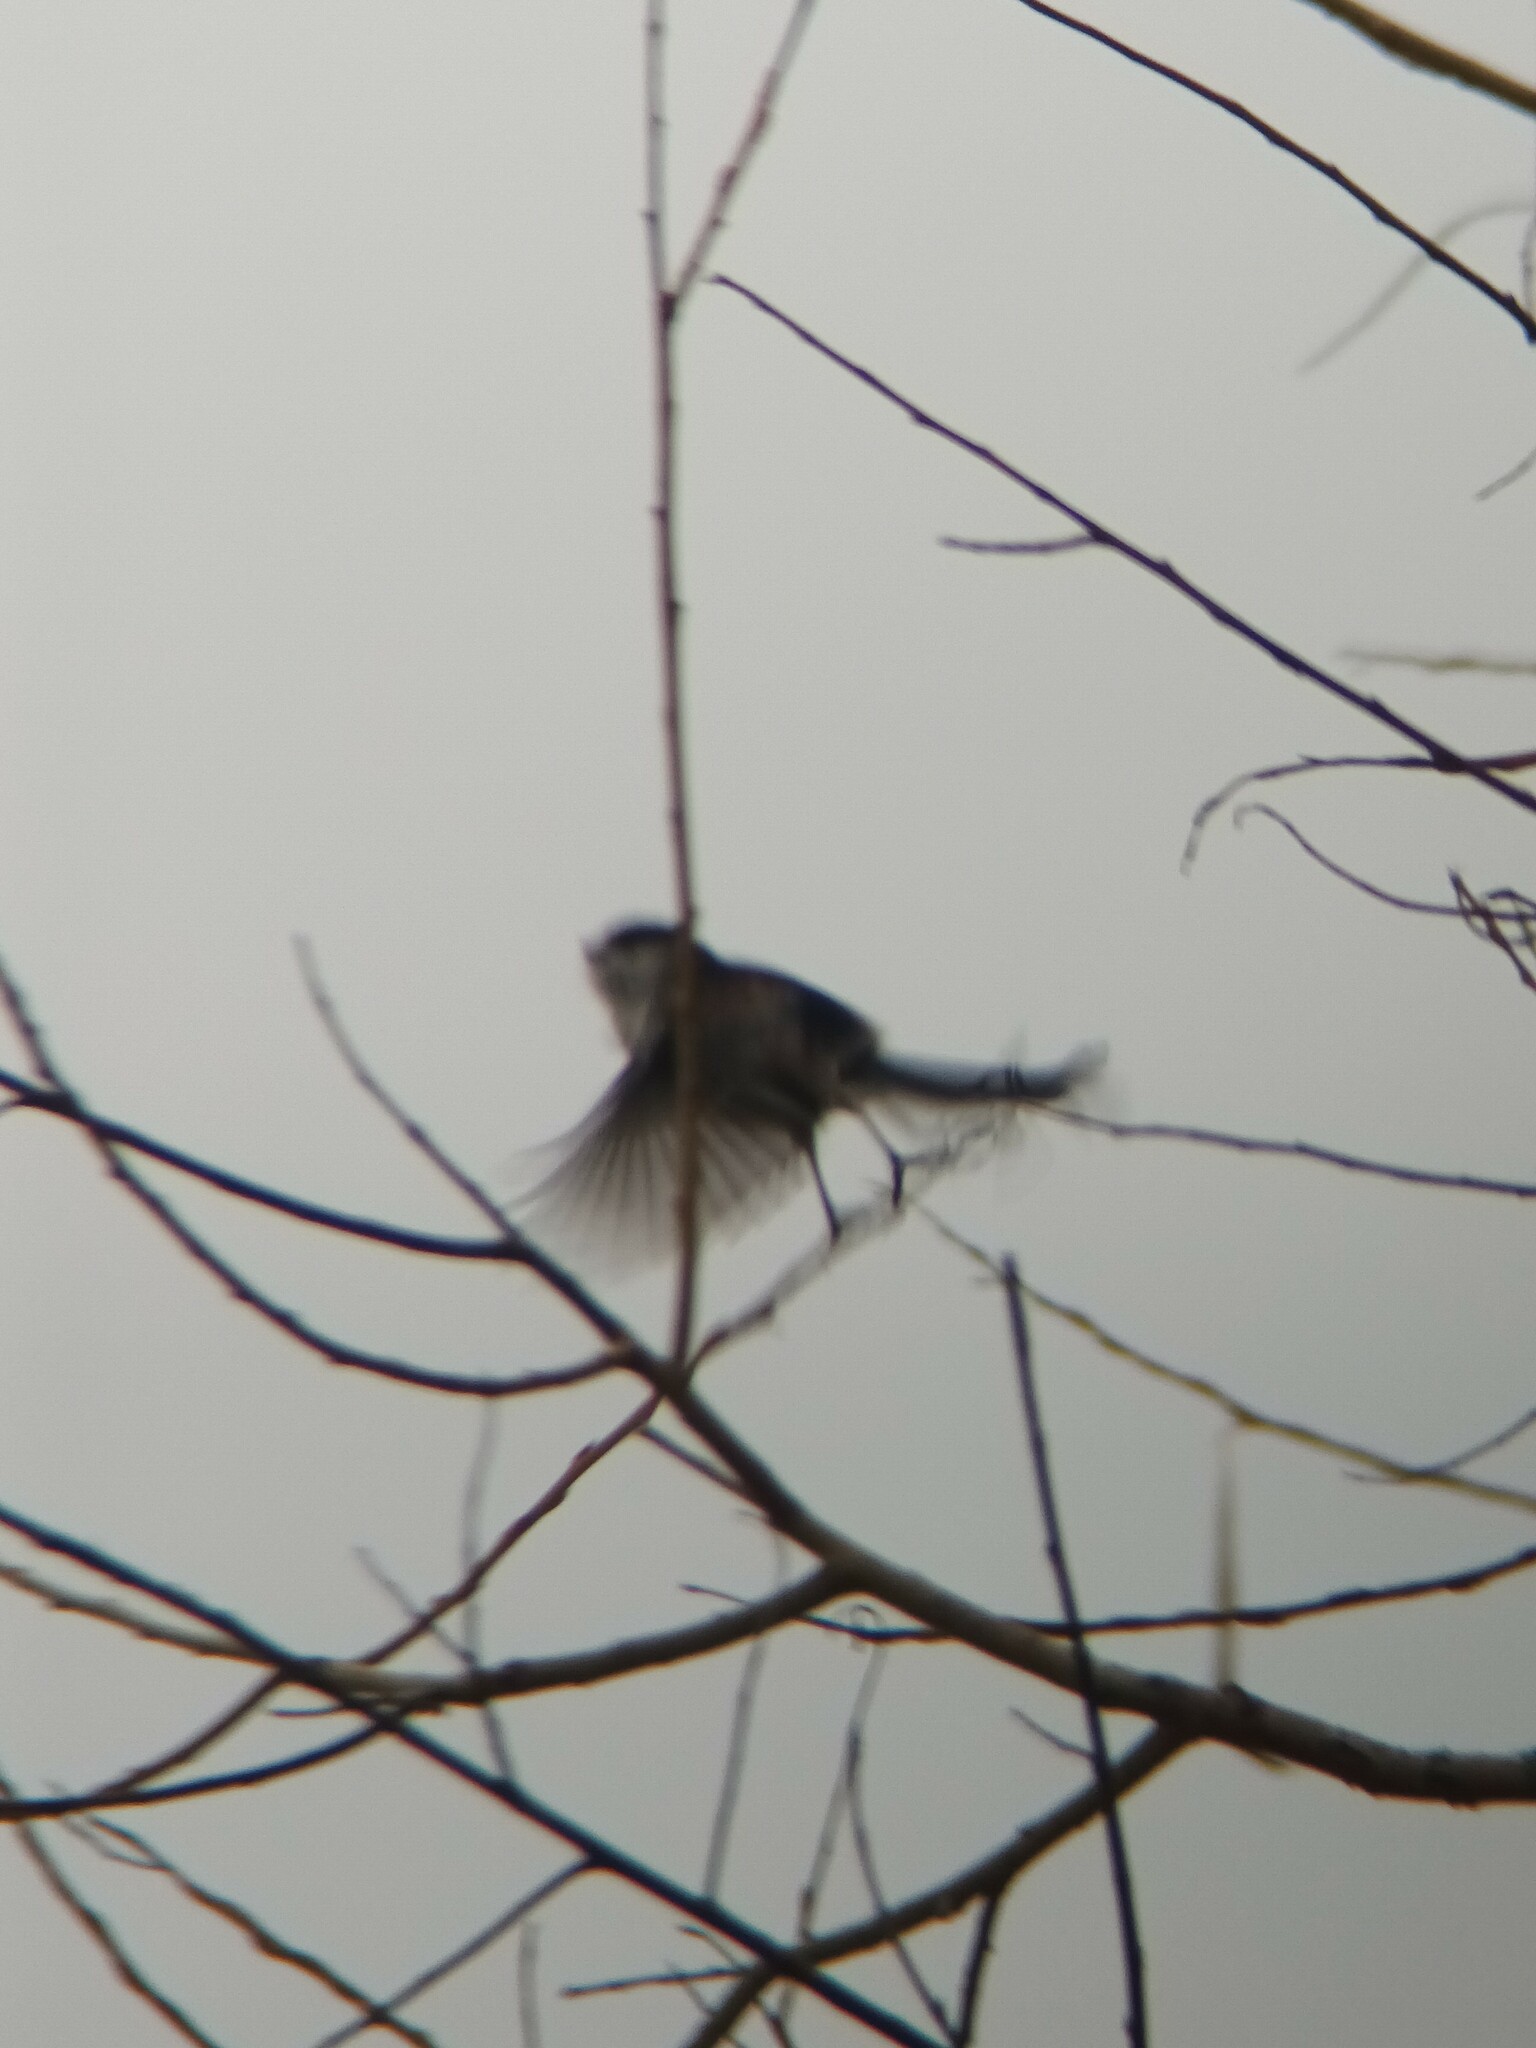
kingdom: Animalia
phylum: Chordata
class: Aves
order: Passeriformes
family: Aegithalidae
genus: Aegithalos
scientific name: Aegithalos caudatus
